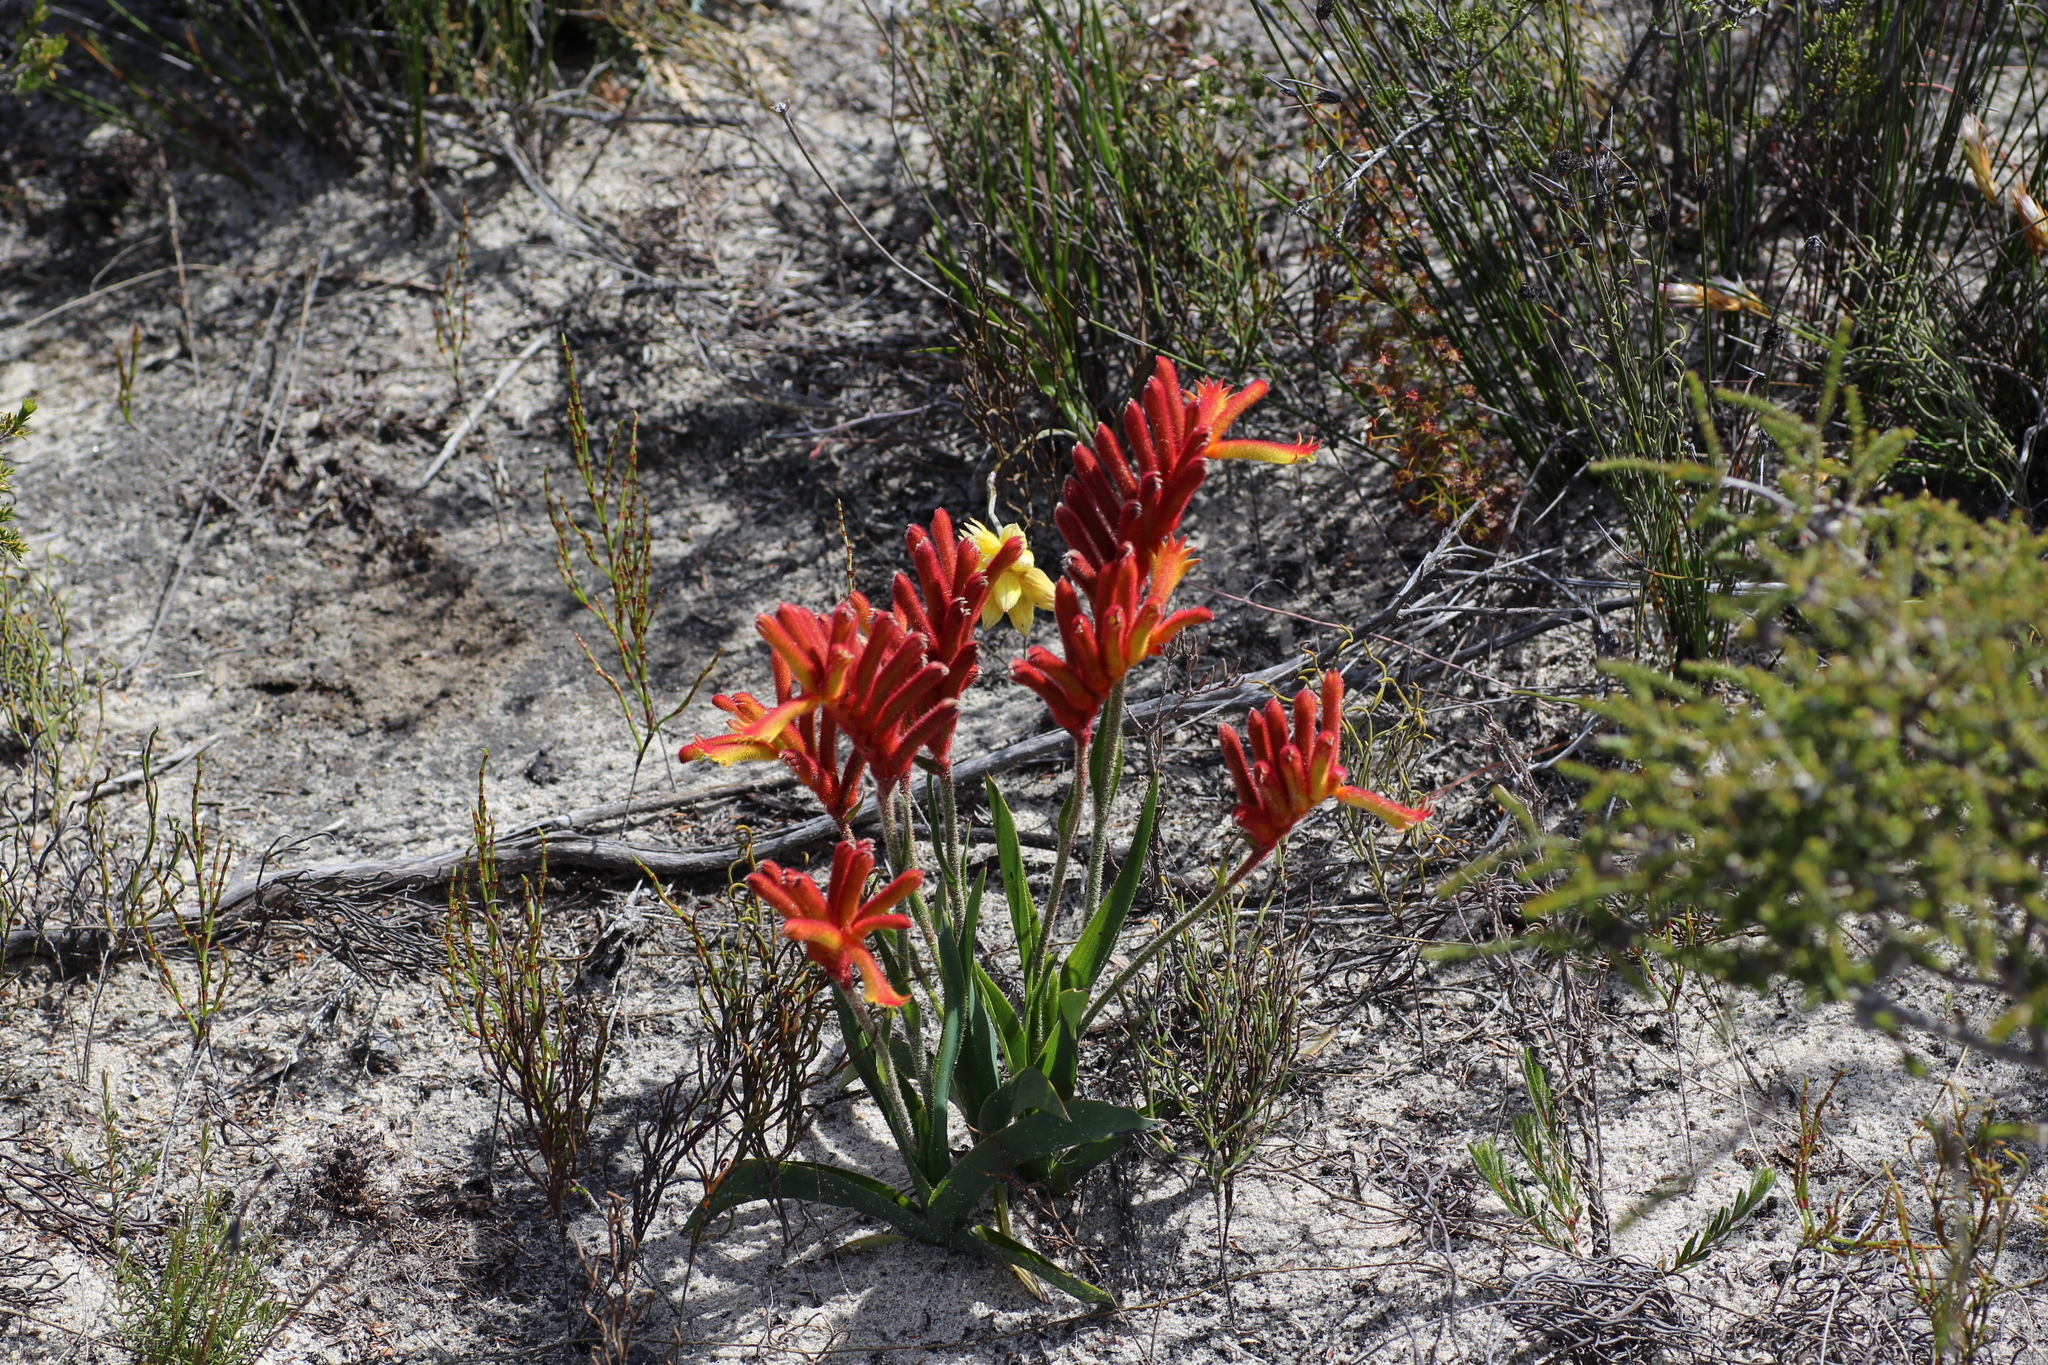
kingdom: Plantae
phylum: Tracheophyta
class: Liliopsida
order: Commelinales
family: Haemodoraceae
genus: Anigozanthos
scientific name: Anigozanthos humilis
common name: Cat's-paw
